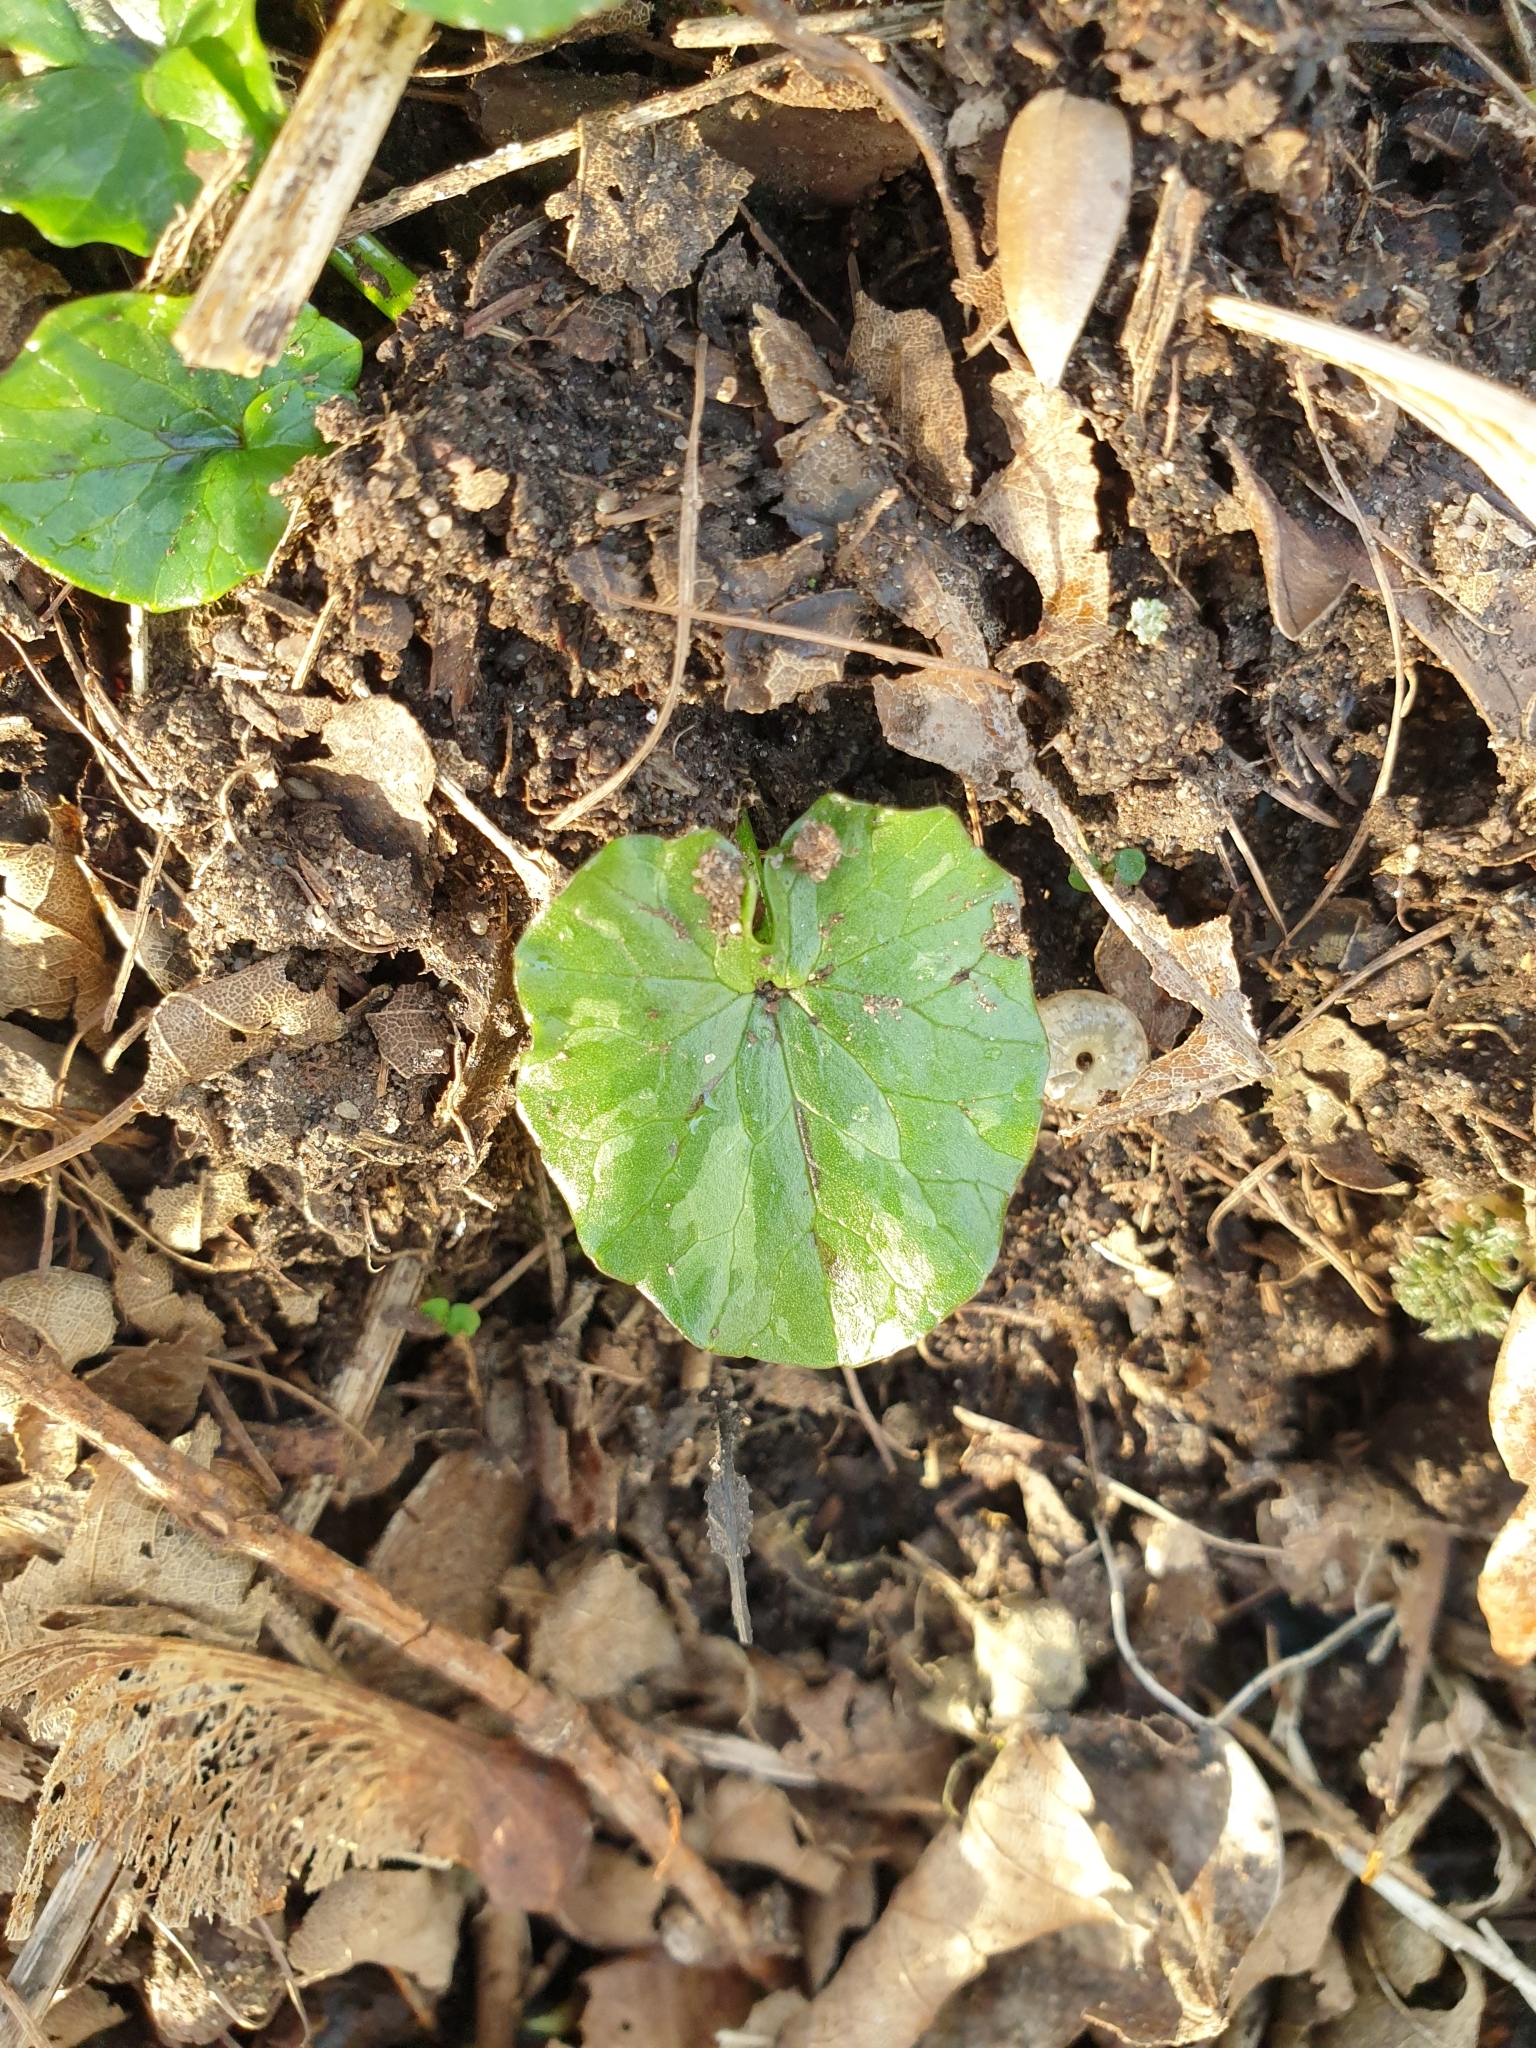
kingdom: Plantae
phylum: Tracheophyta
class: Magnoliopsida
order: Ranunculales
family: Ranunculaceae
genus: Ficaria
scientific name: Ficaria verna
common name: Lesser celandine
